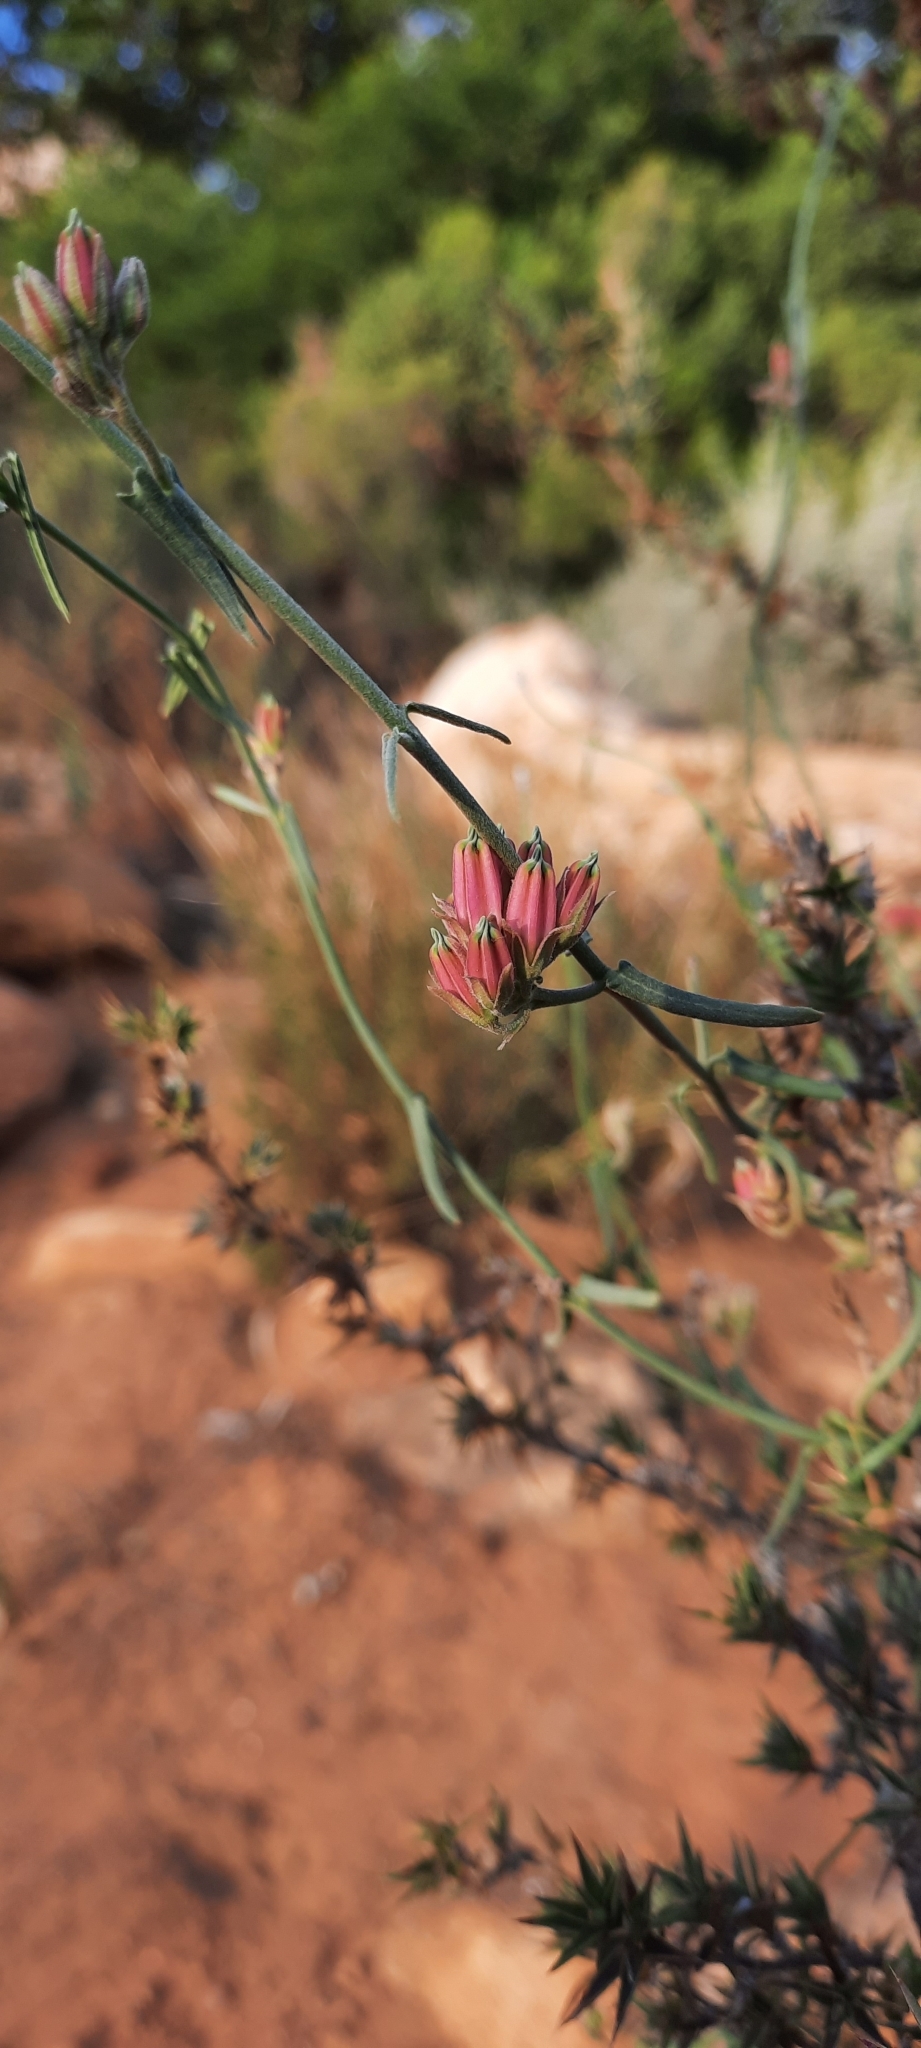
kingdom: Plantae
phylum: Tracheophyta
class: Magnoliopsida
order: Gentianales
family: Apocynaceae
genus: Microloma
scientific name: Microloma sagittatum
